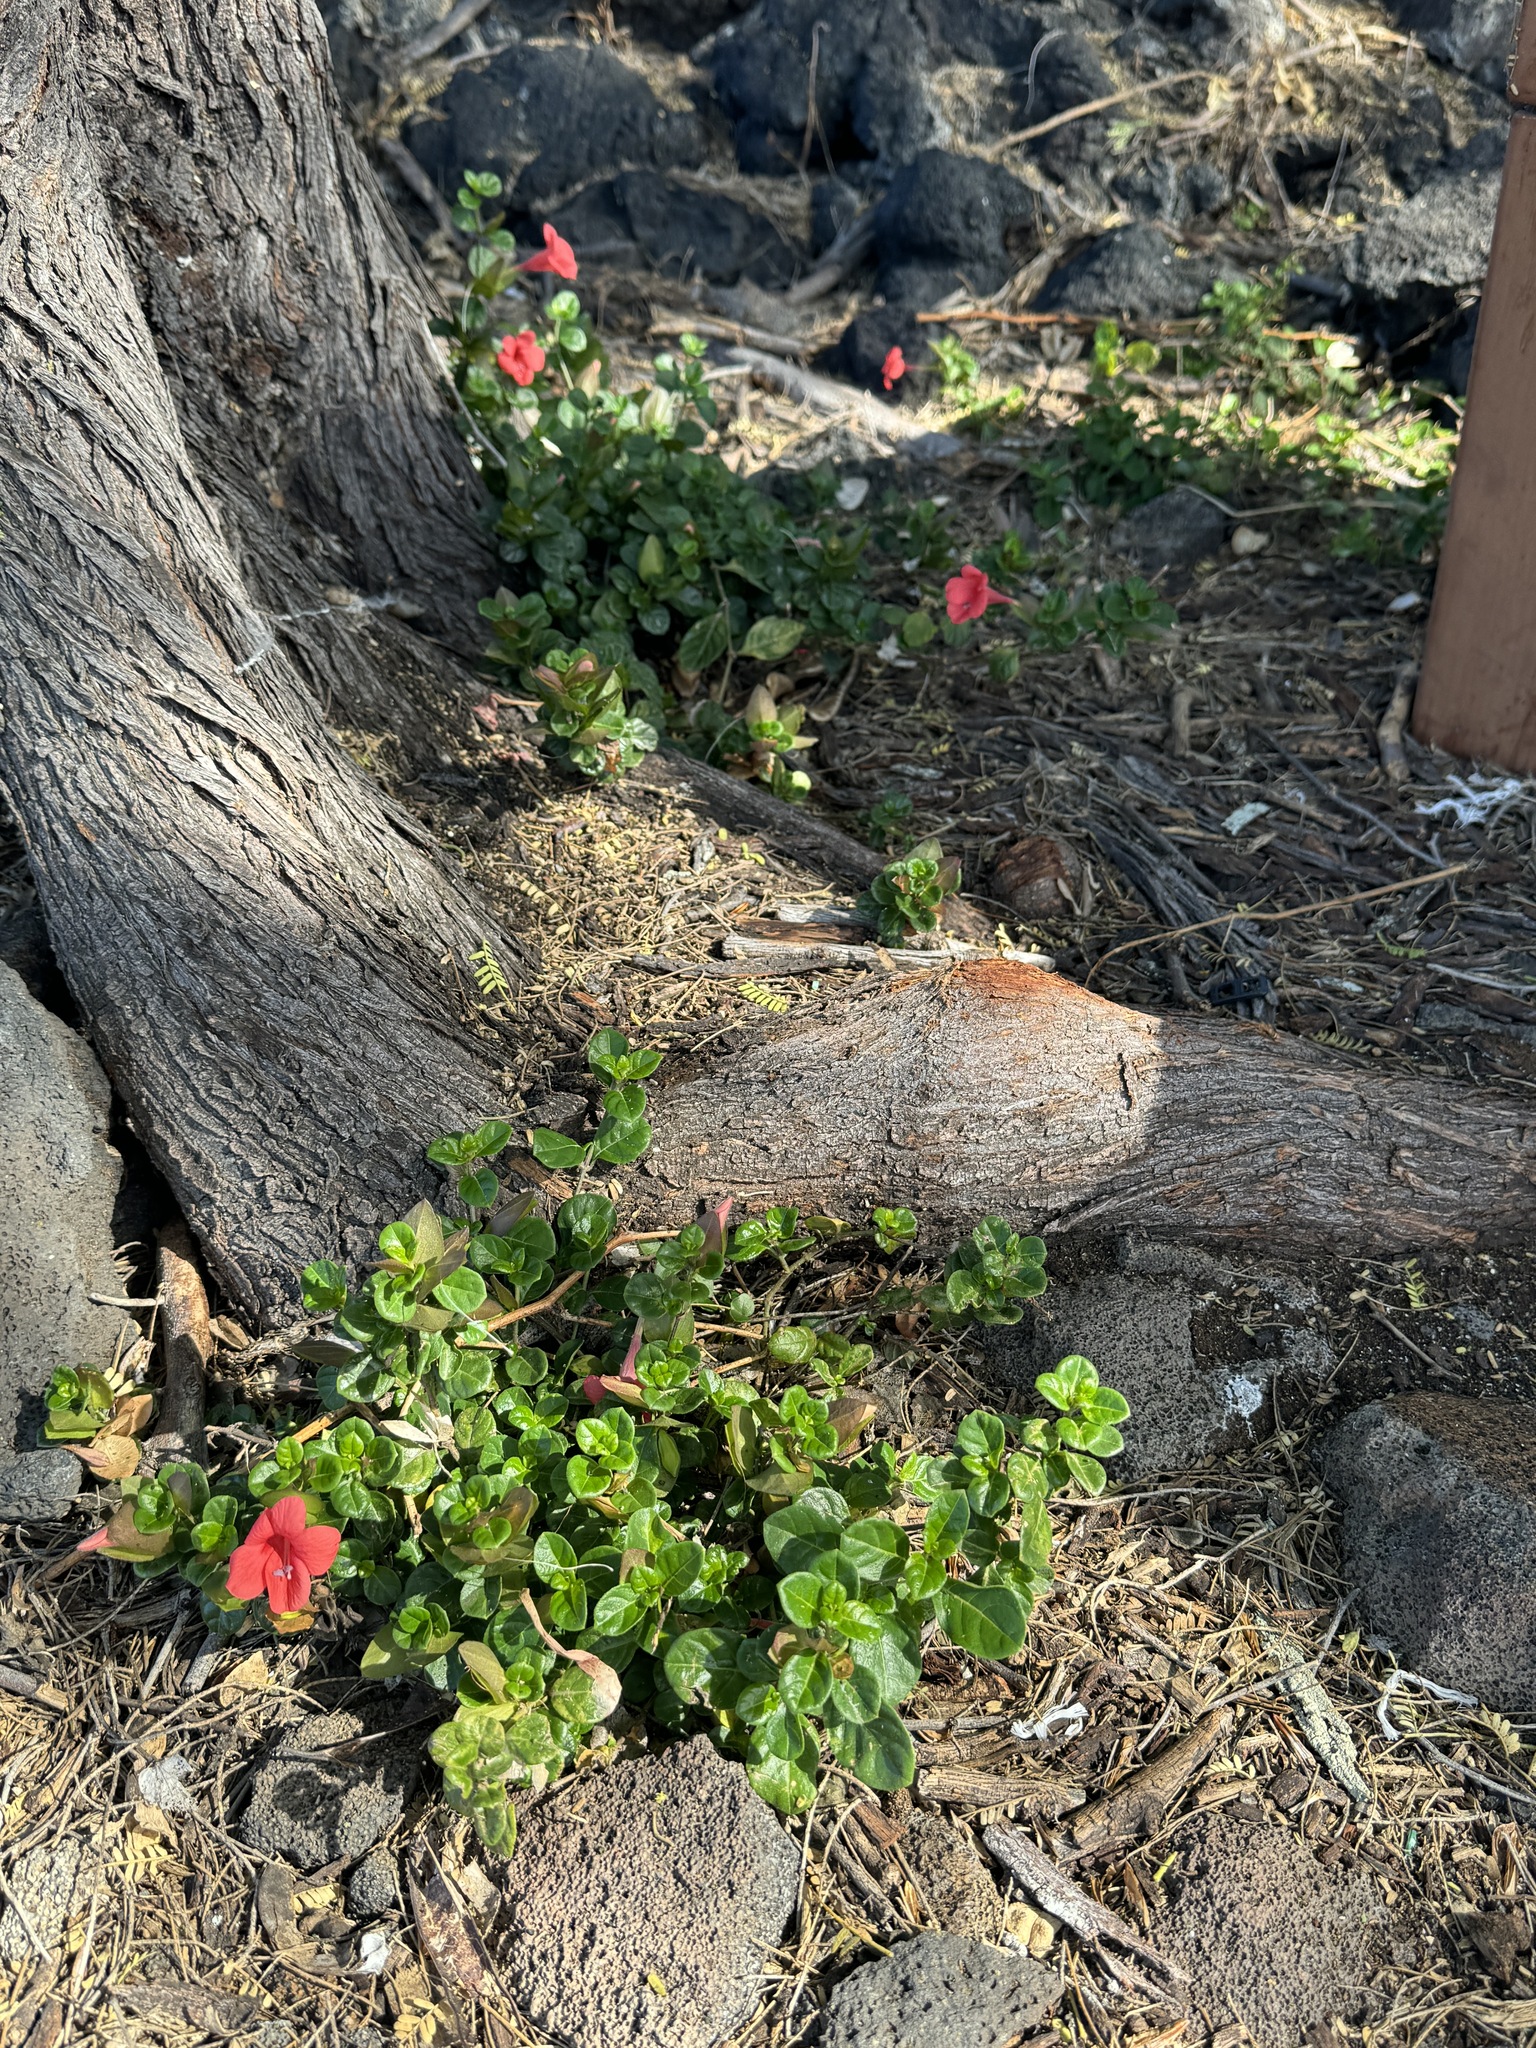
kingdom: Plantae
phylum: Tracheophyta
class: Magnoliopsida
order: Lamiales
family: Acanthaceae
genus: Barleria
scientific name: Barleria repens
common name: Pink-ruellia
